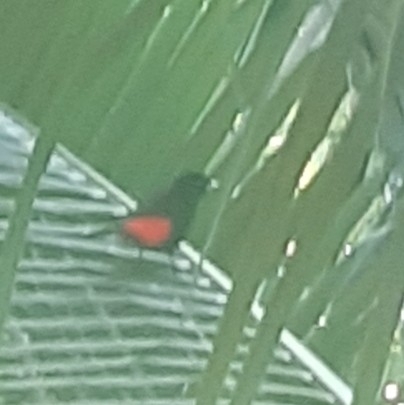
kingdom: Animalia
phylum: Chordata
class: Aves
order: Passeriformes
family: Thraupidae
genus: Ramphocelus
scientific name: Ramphocelus passerinii
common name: Passerini's tanager
